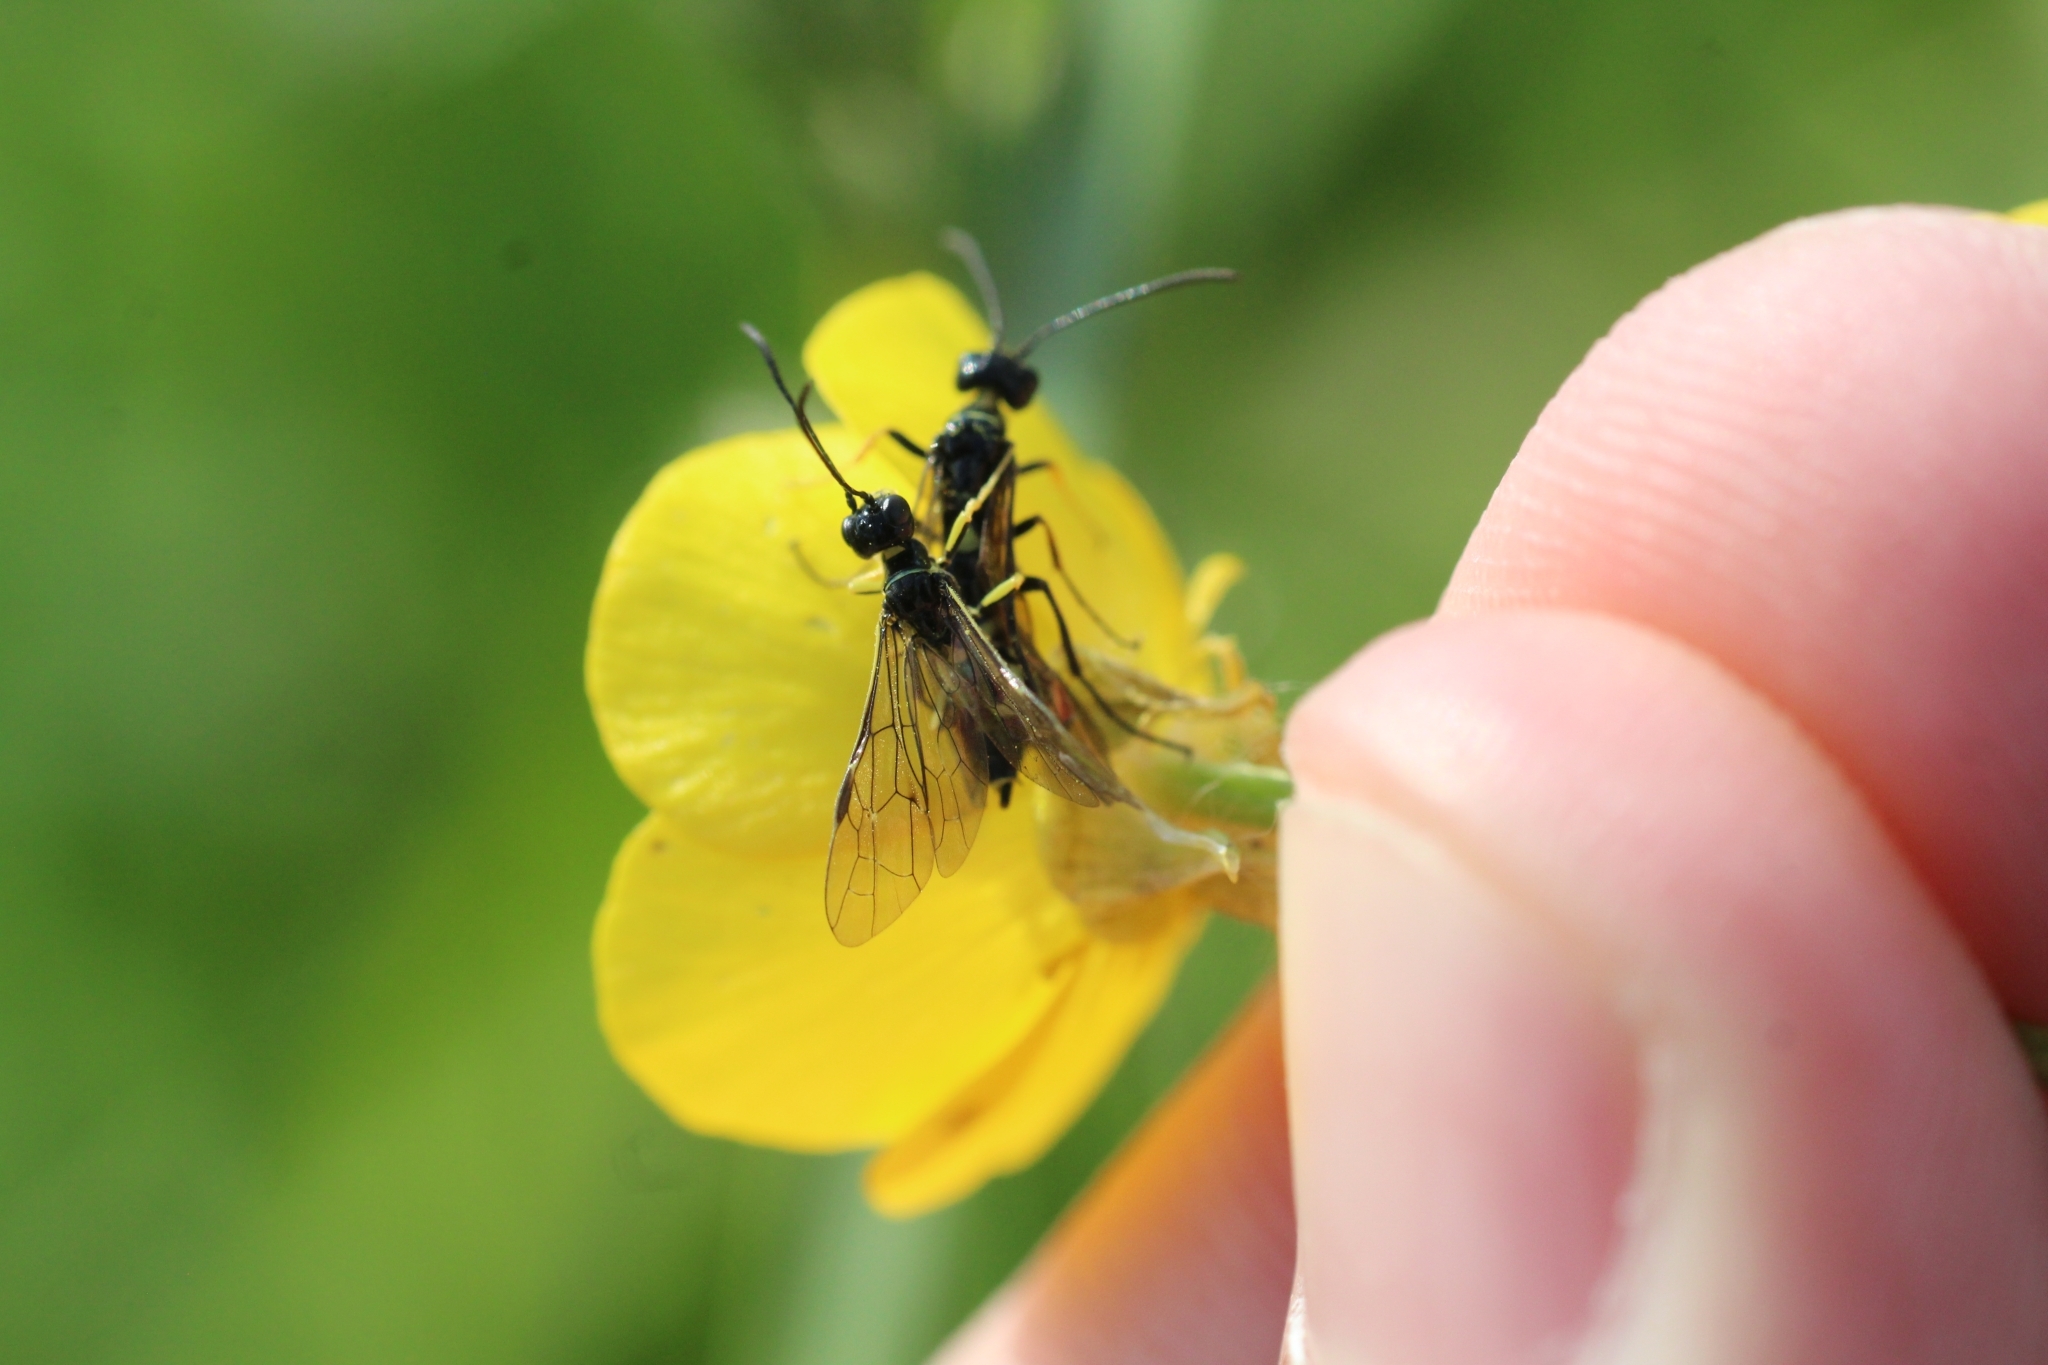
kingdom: Animalia
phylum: Arthropoda
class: Insecta
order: Hymenoptera
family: Cephidae
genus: Cephus
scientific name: Cephus pygmeus
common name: Wasp
